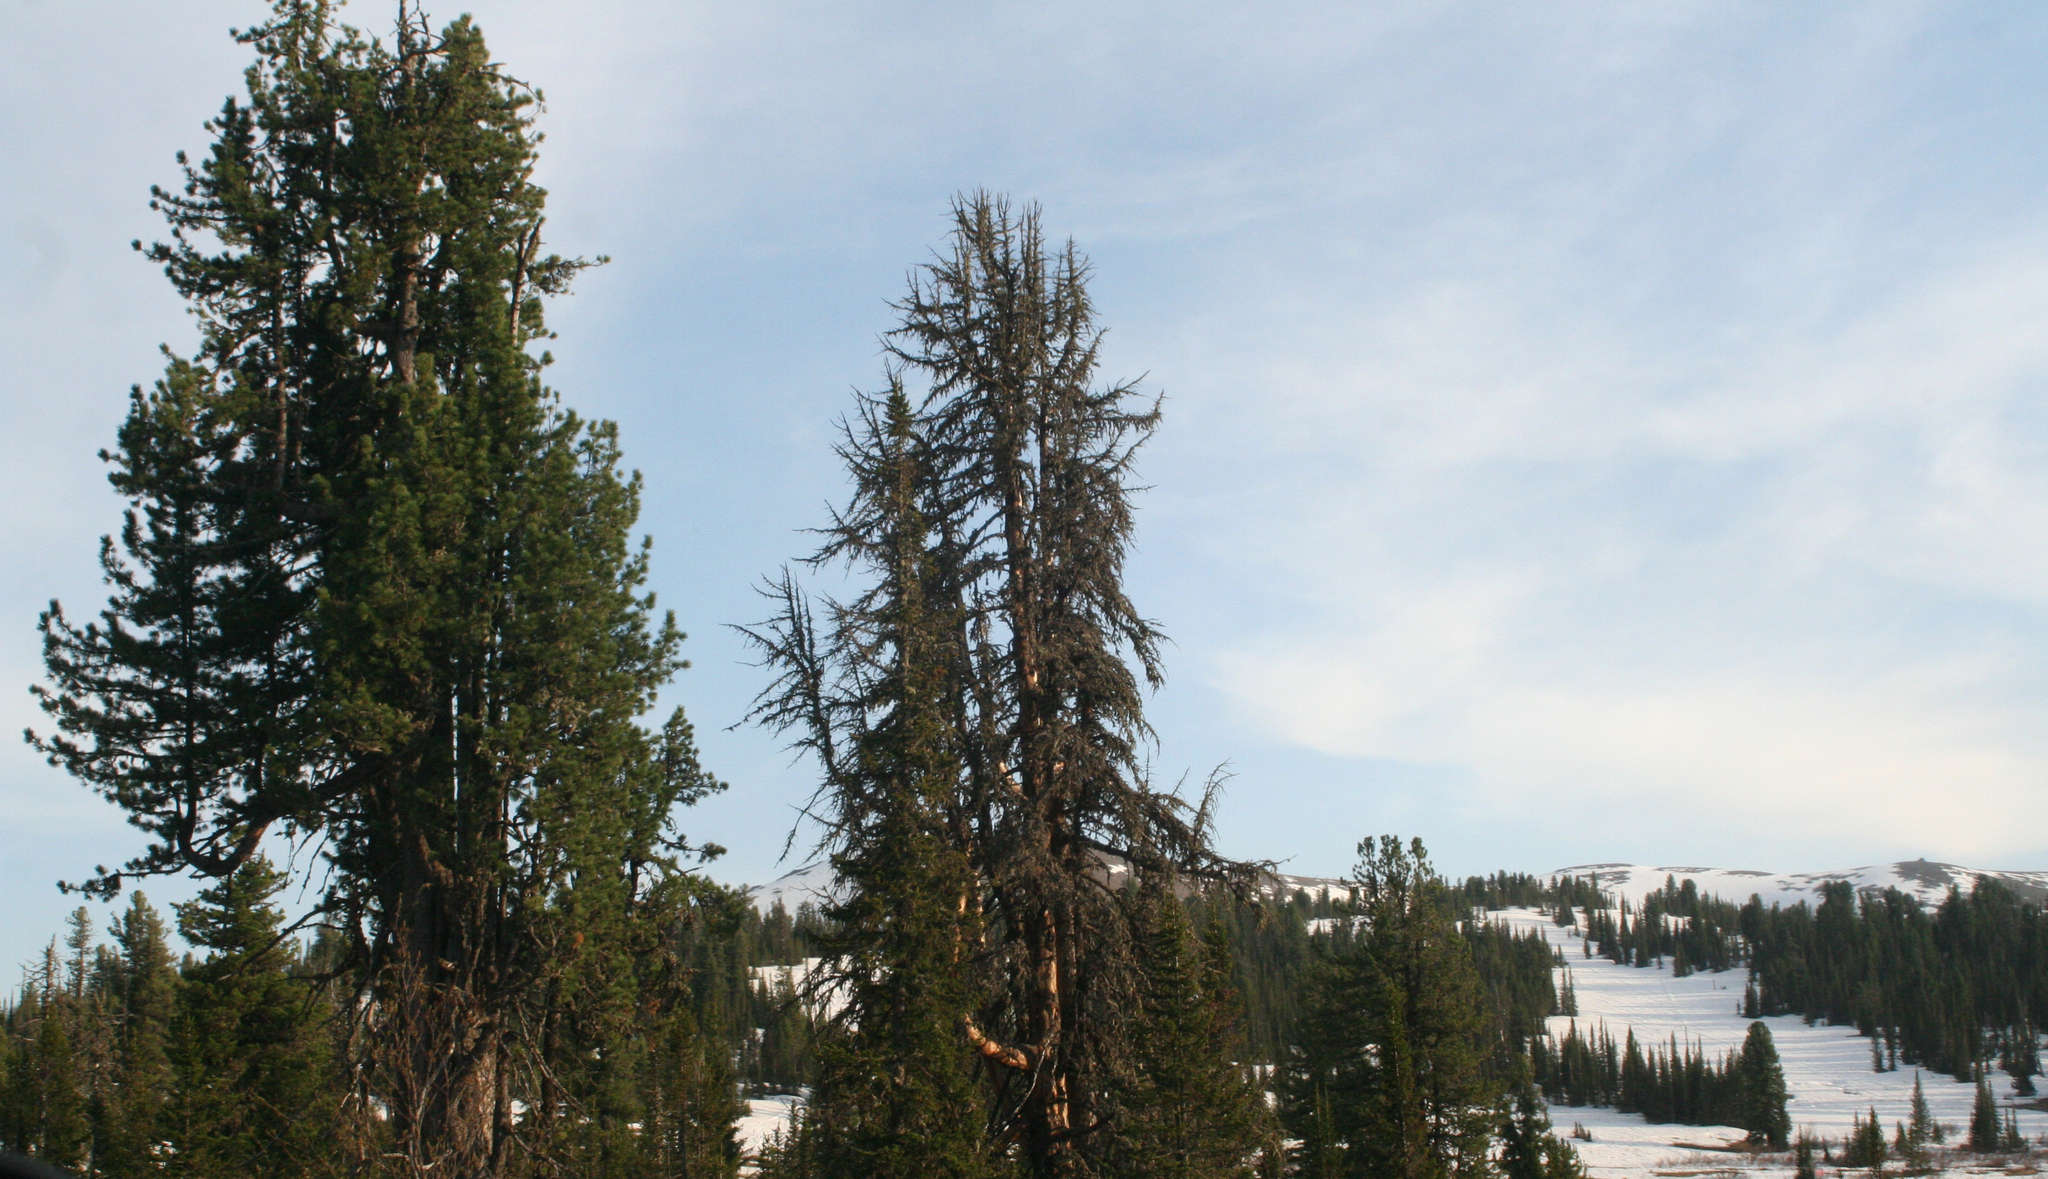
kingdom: Plantae
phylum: Tracheophyta
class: Pinopsida
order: Pinales
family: Pinaceae
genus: Larix
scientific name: Larix sibirica
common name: Siberian larch
